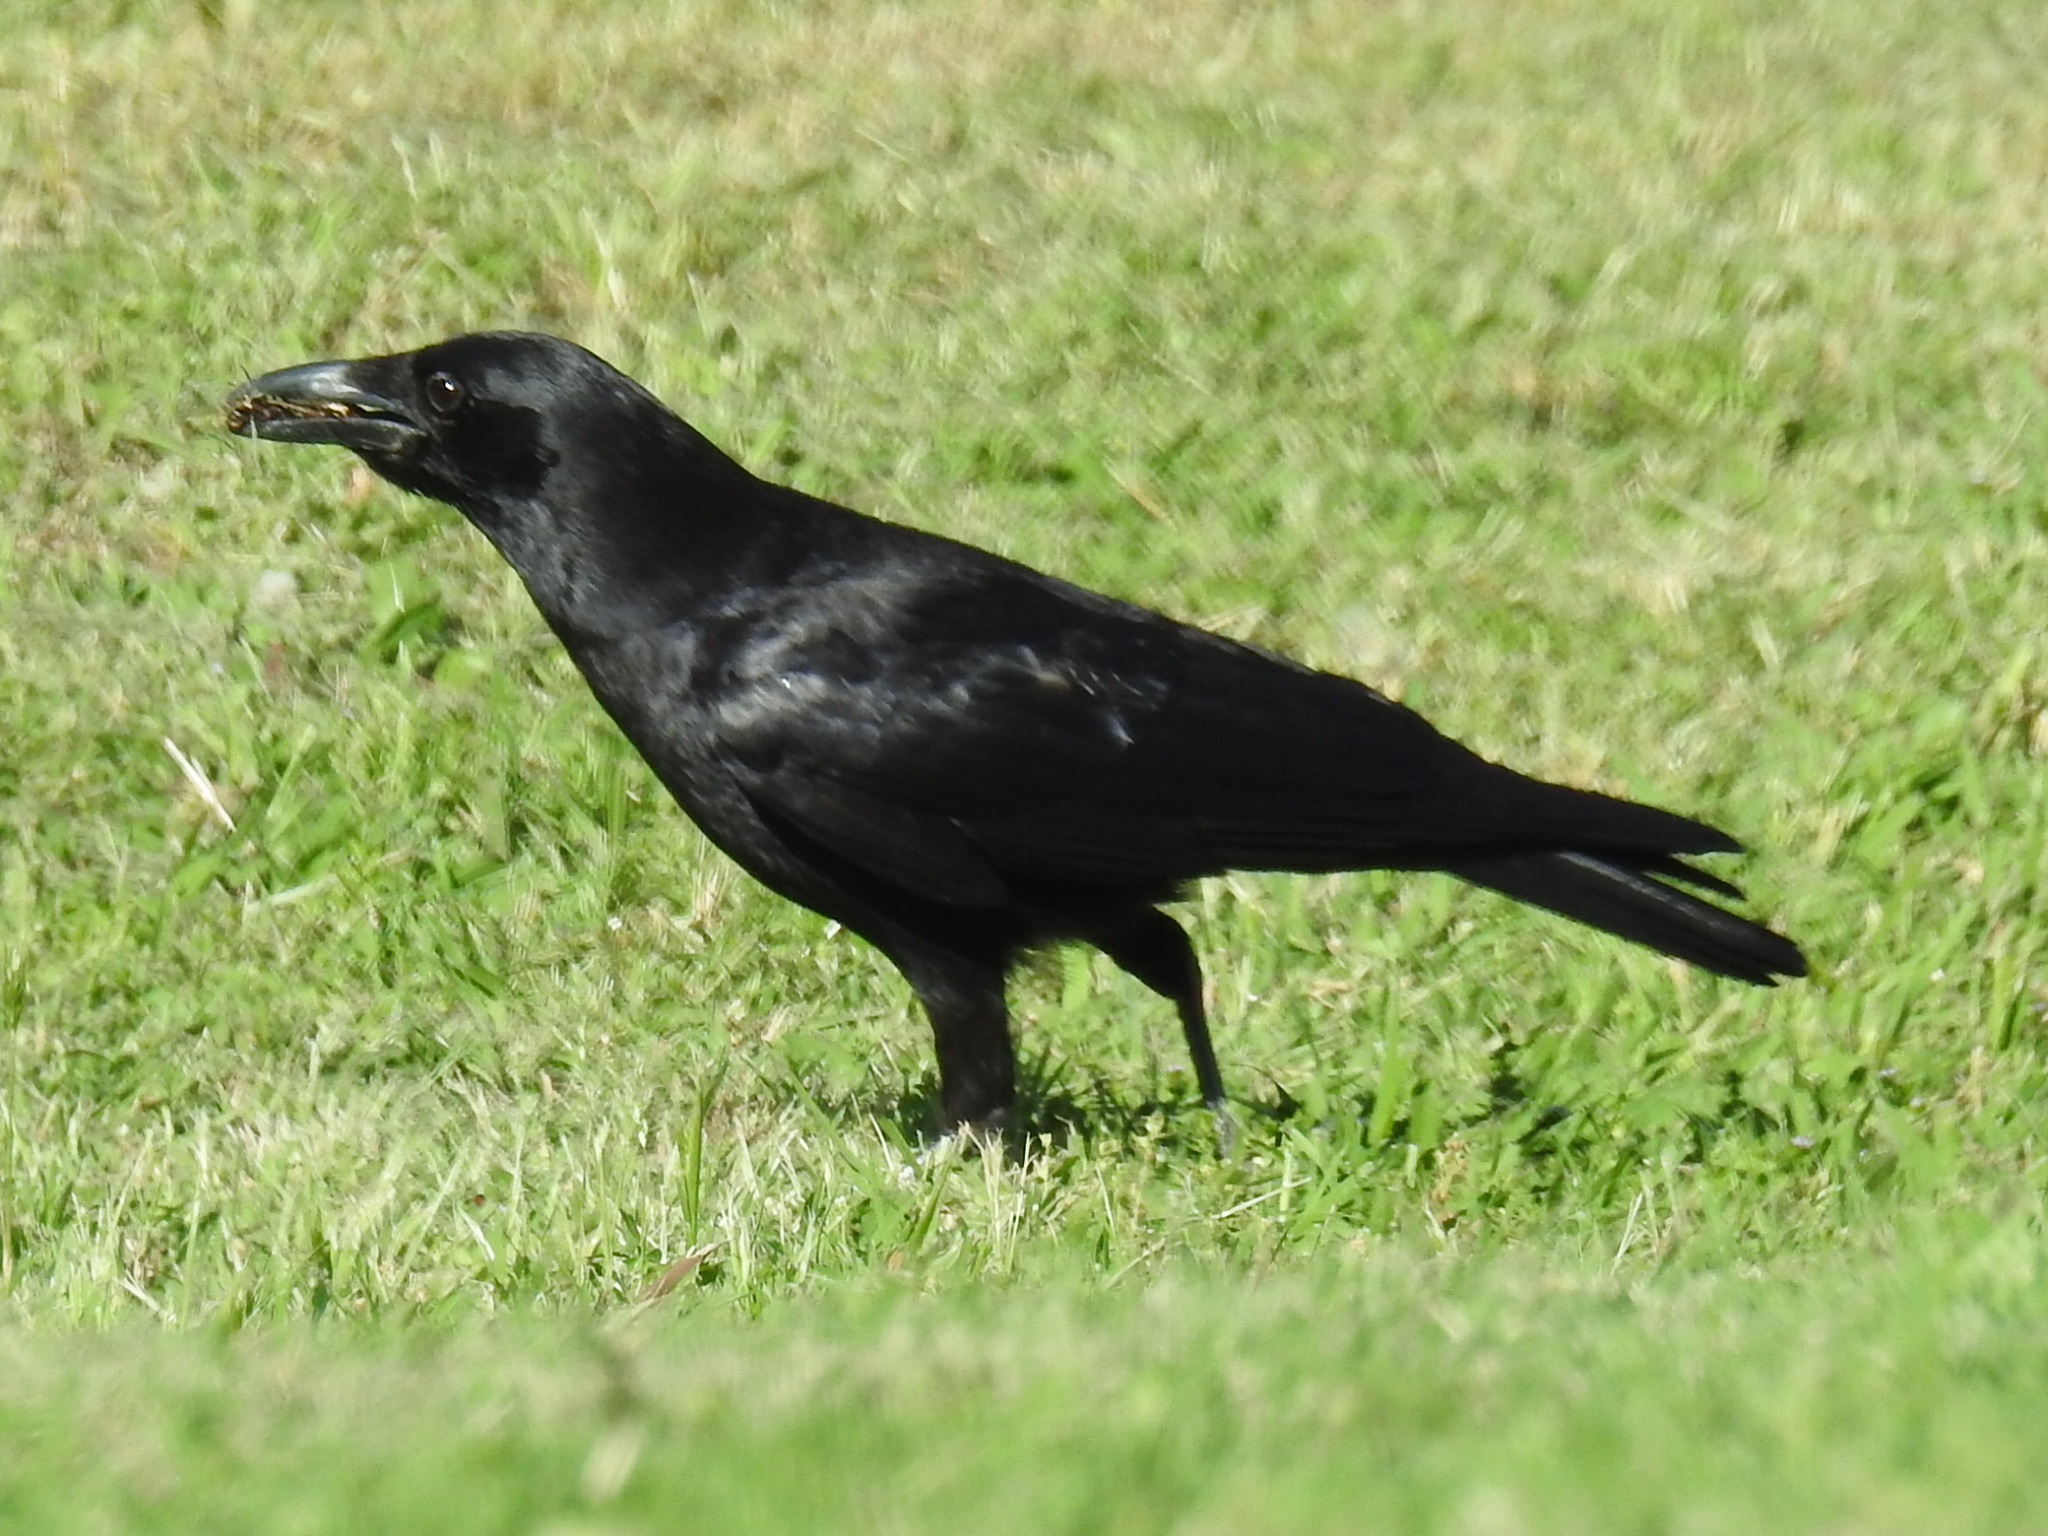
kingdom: Animalia
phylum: Chordata
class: Aves
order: Passeriformes
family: Corvidae
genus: Corvus
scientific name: Corvus brachyrhynchos
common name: American crow
